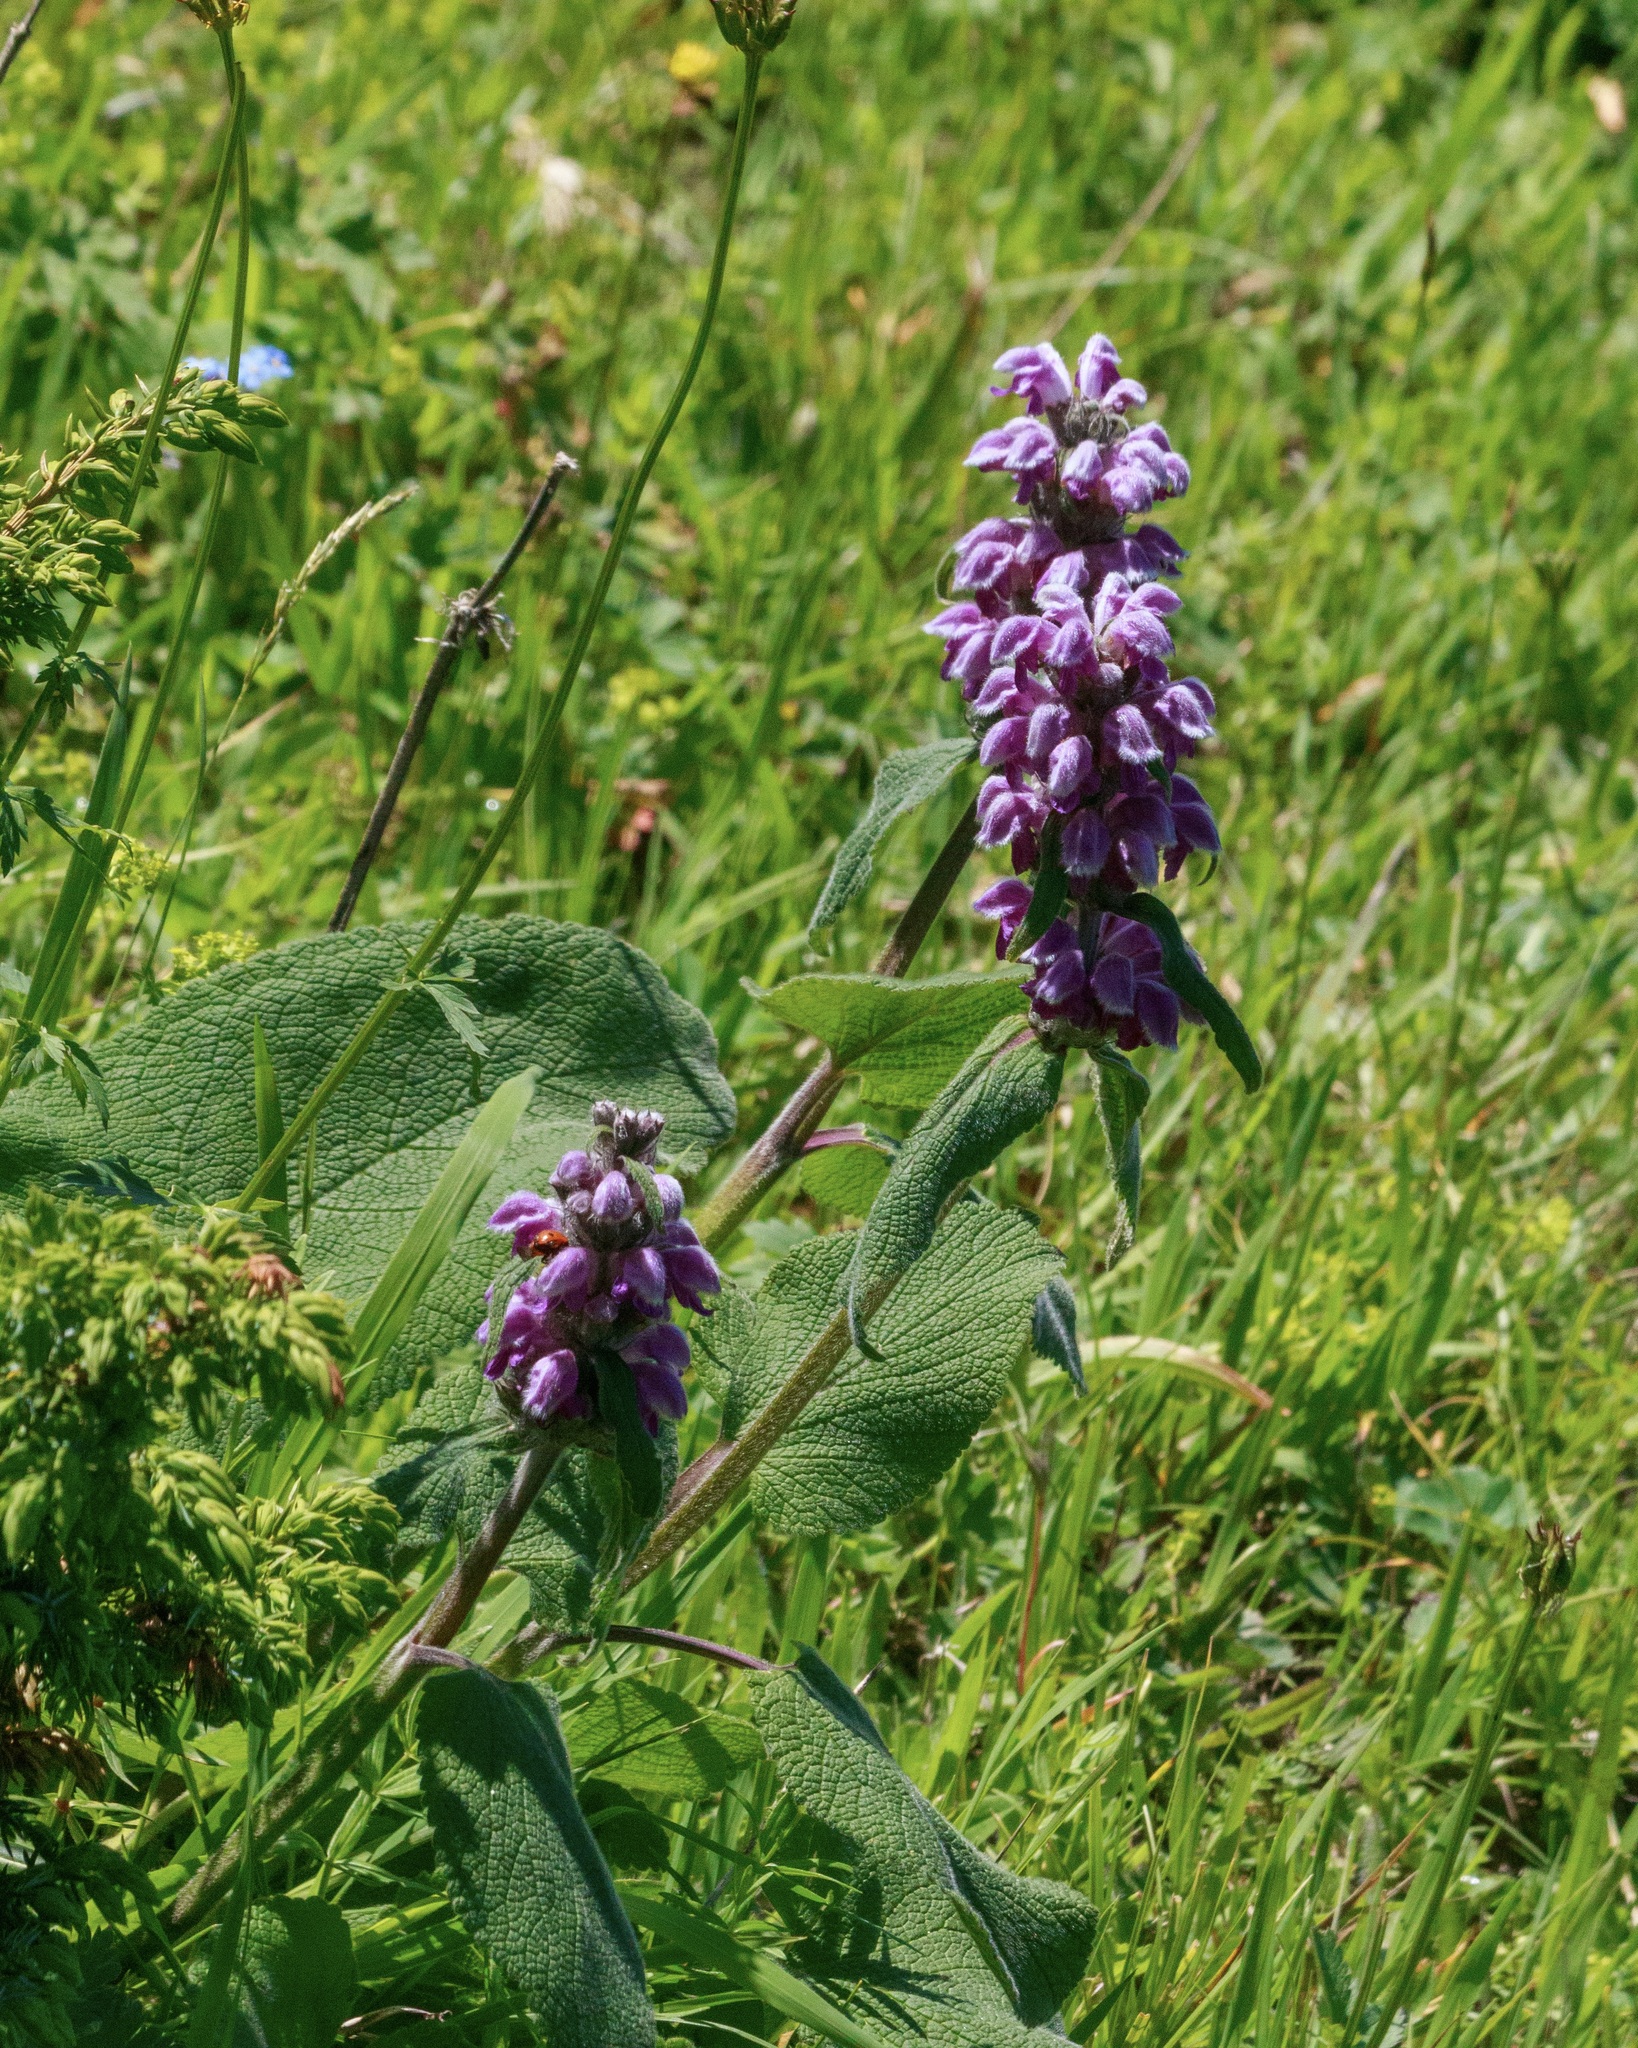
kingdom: Plantae
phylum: Tracheophyta
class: Magnoliopsida
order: Lamiales
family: Lamiaceae
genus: Phlomoides
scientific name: Phlomoides oreophila
